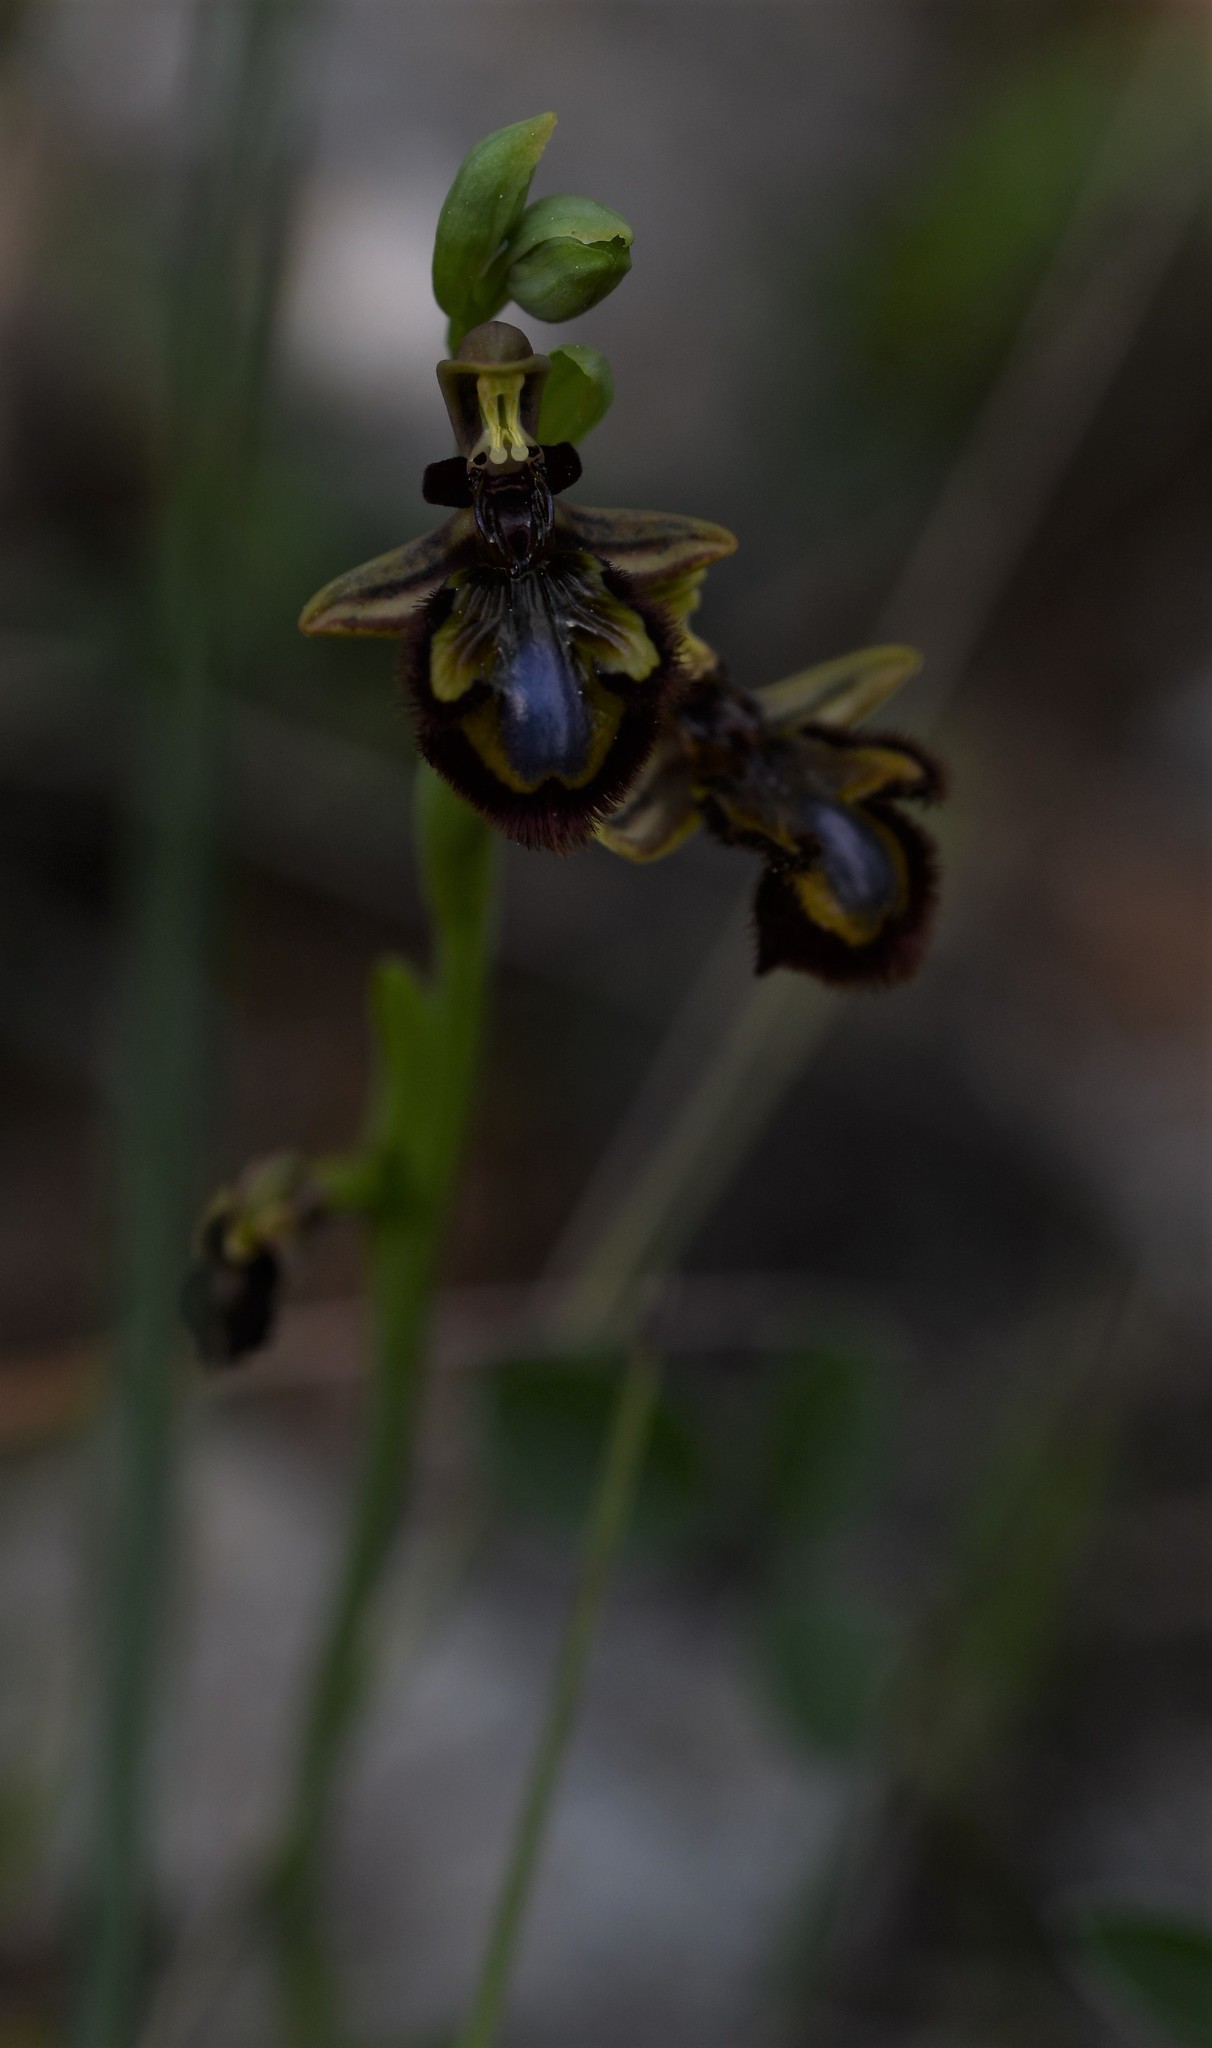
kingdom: Plantae
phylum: Tracheophyta
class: Liliopsida
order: Asparagales
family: Orchidaceae
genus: Ophrys
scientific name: Ophrys speculum
